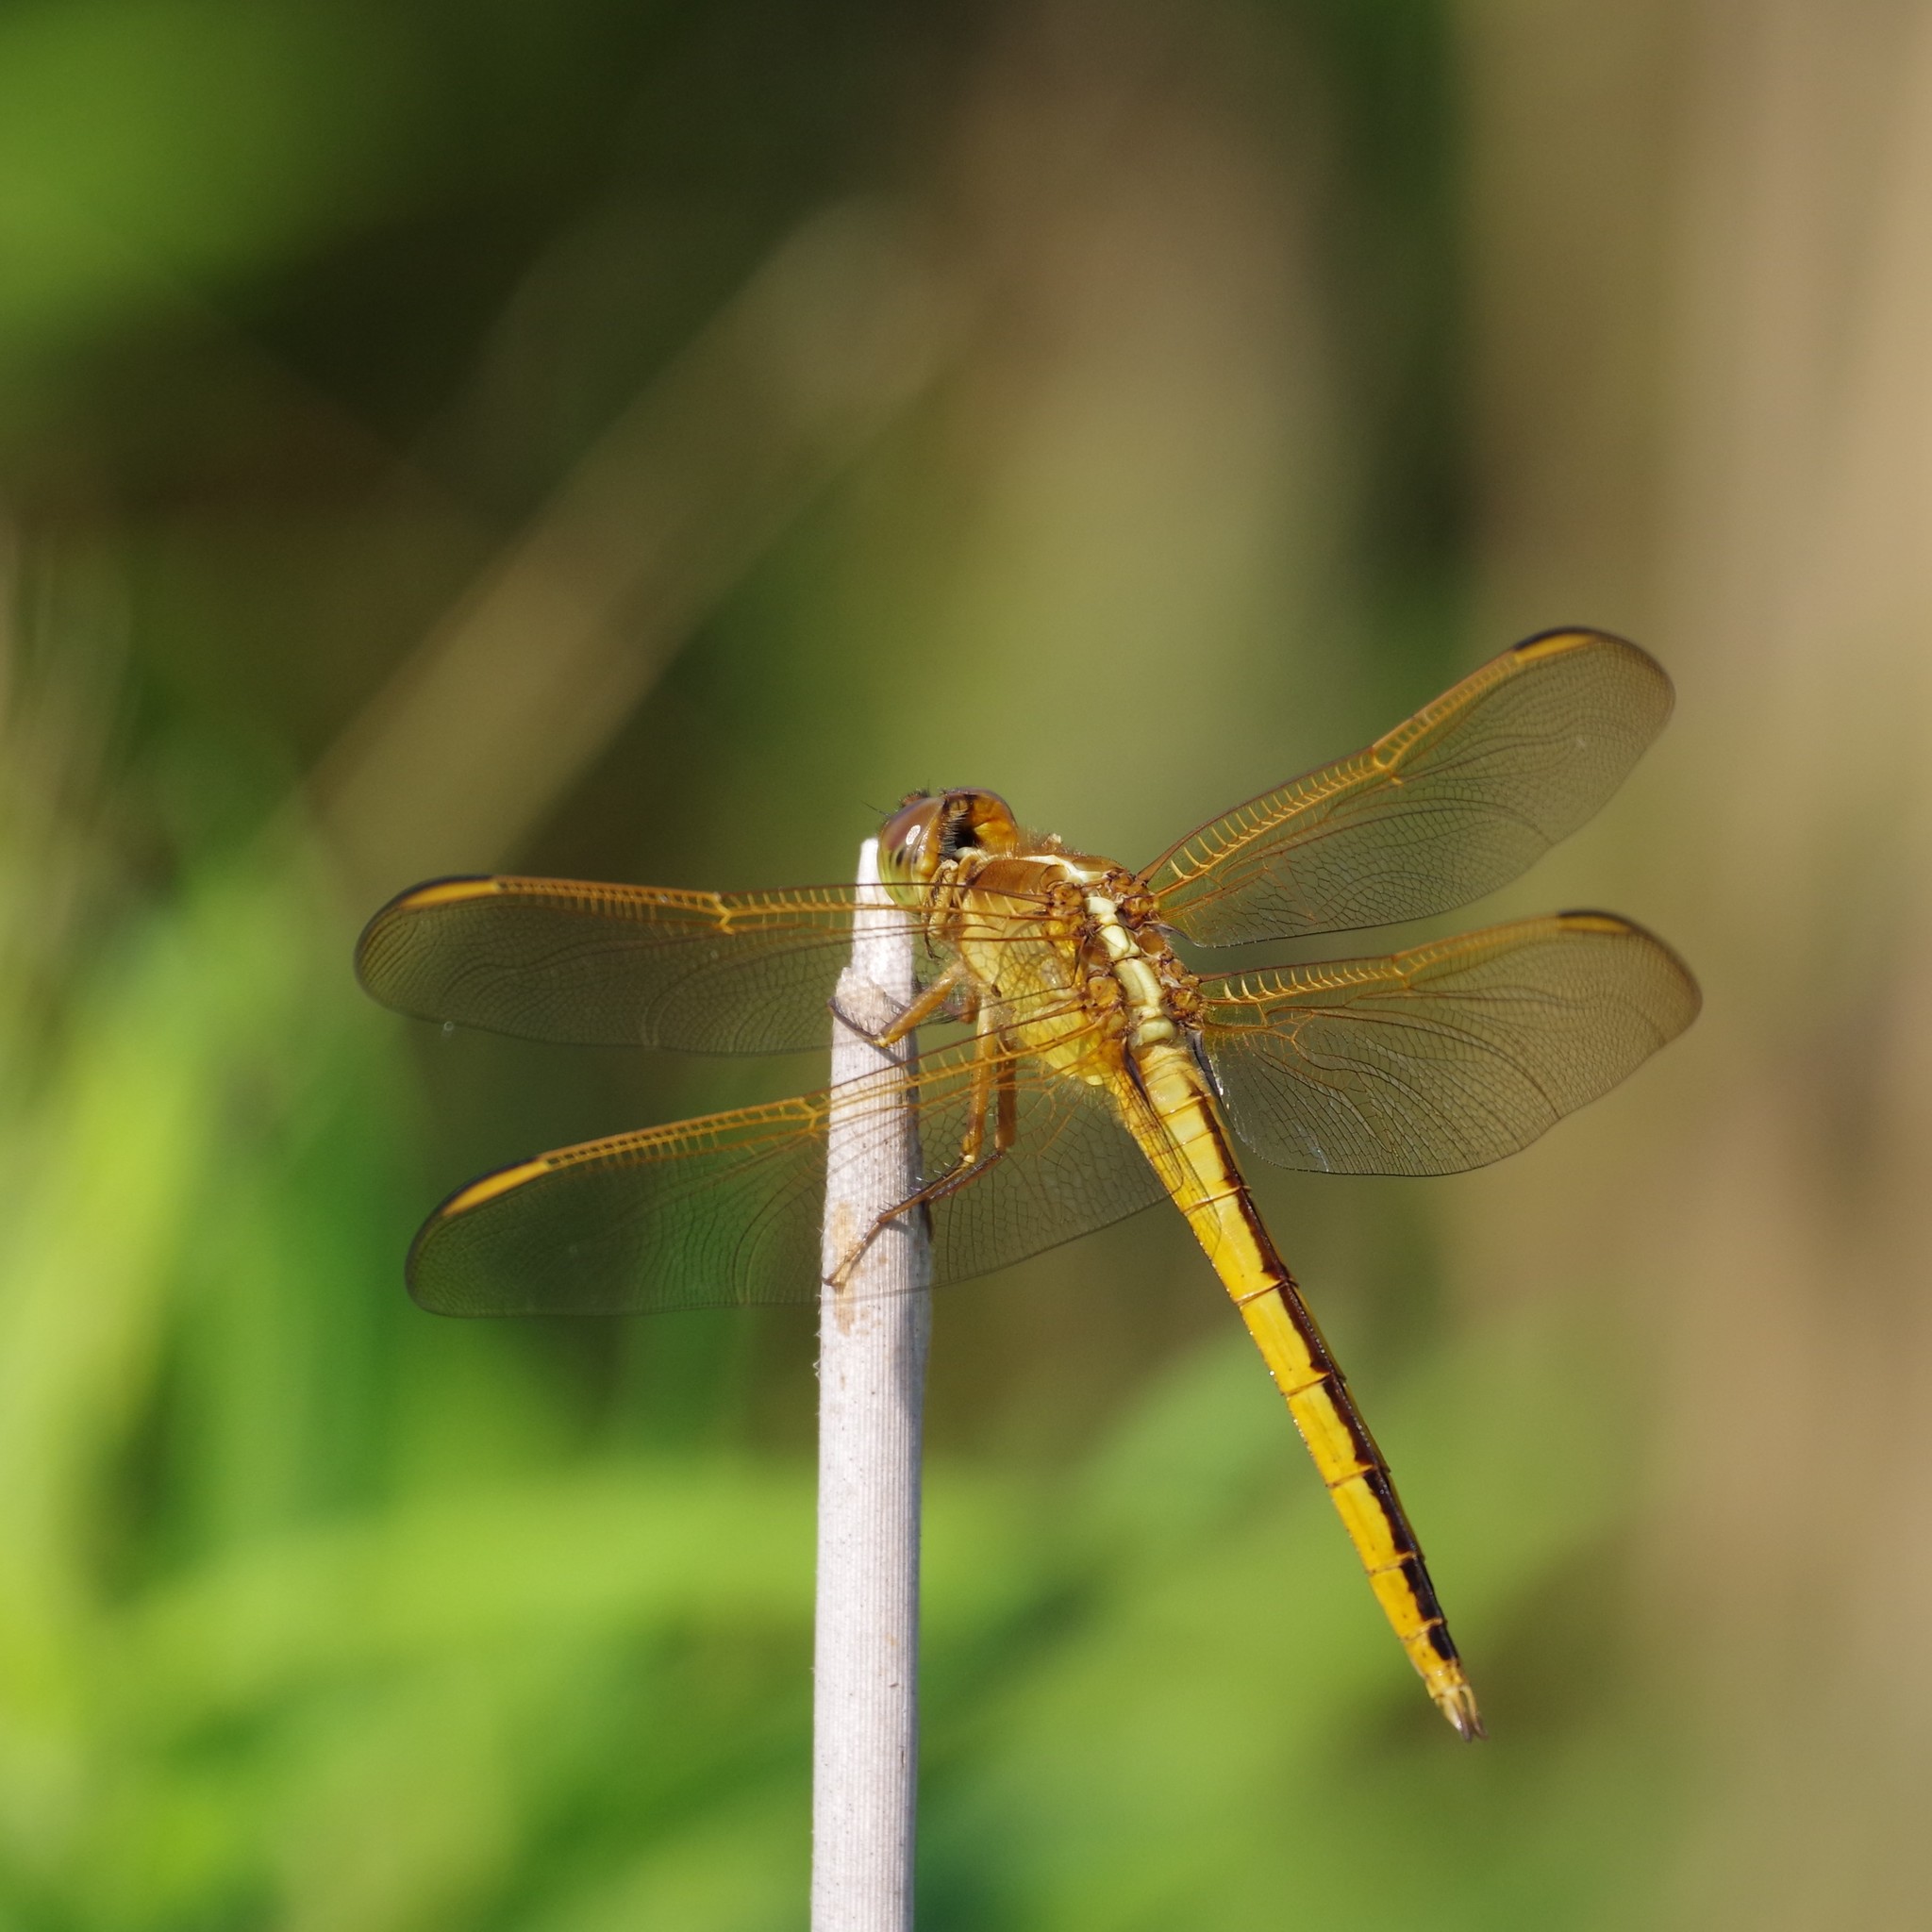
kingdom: Animalia
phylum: Arthropoda
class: Insecta
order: Odonata
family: Libellulidae
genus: Libellula
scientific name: Libellula needhami
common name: Needham's skimmer
